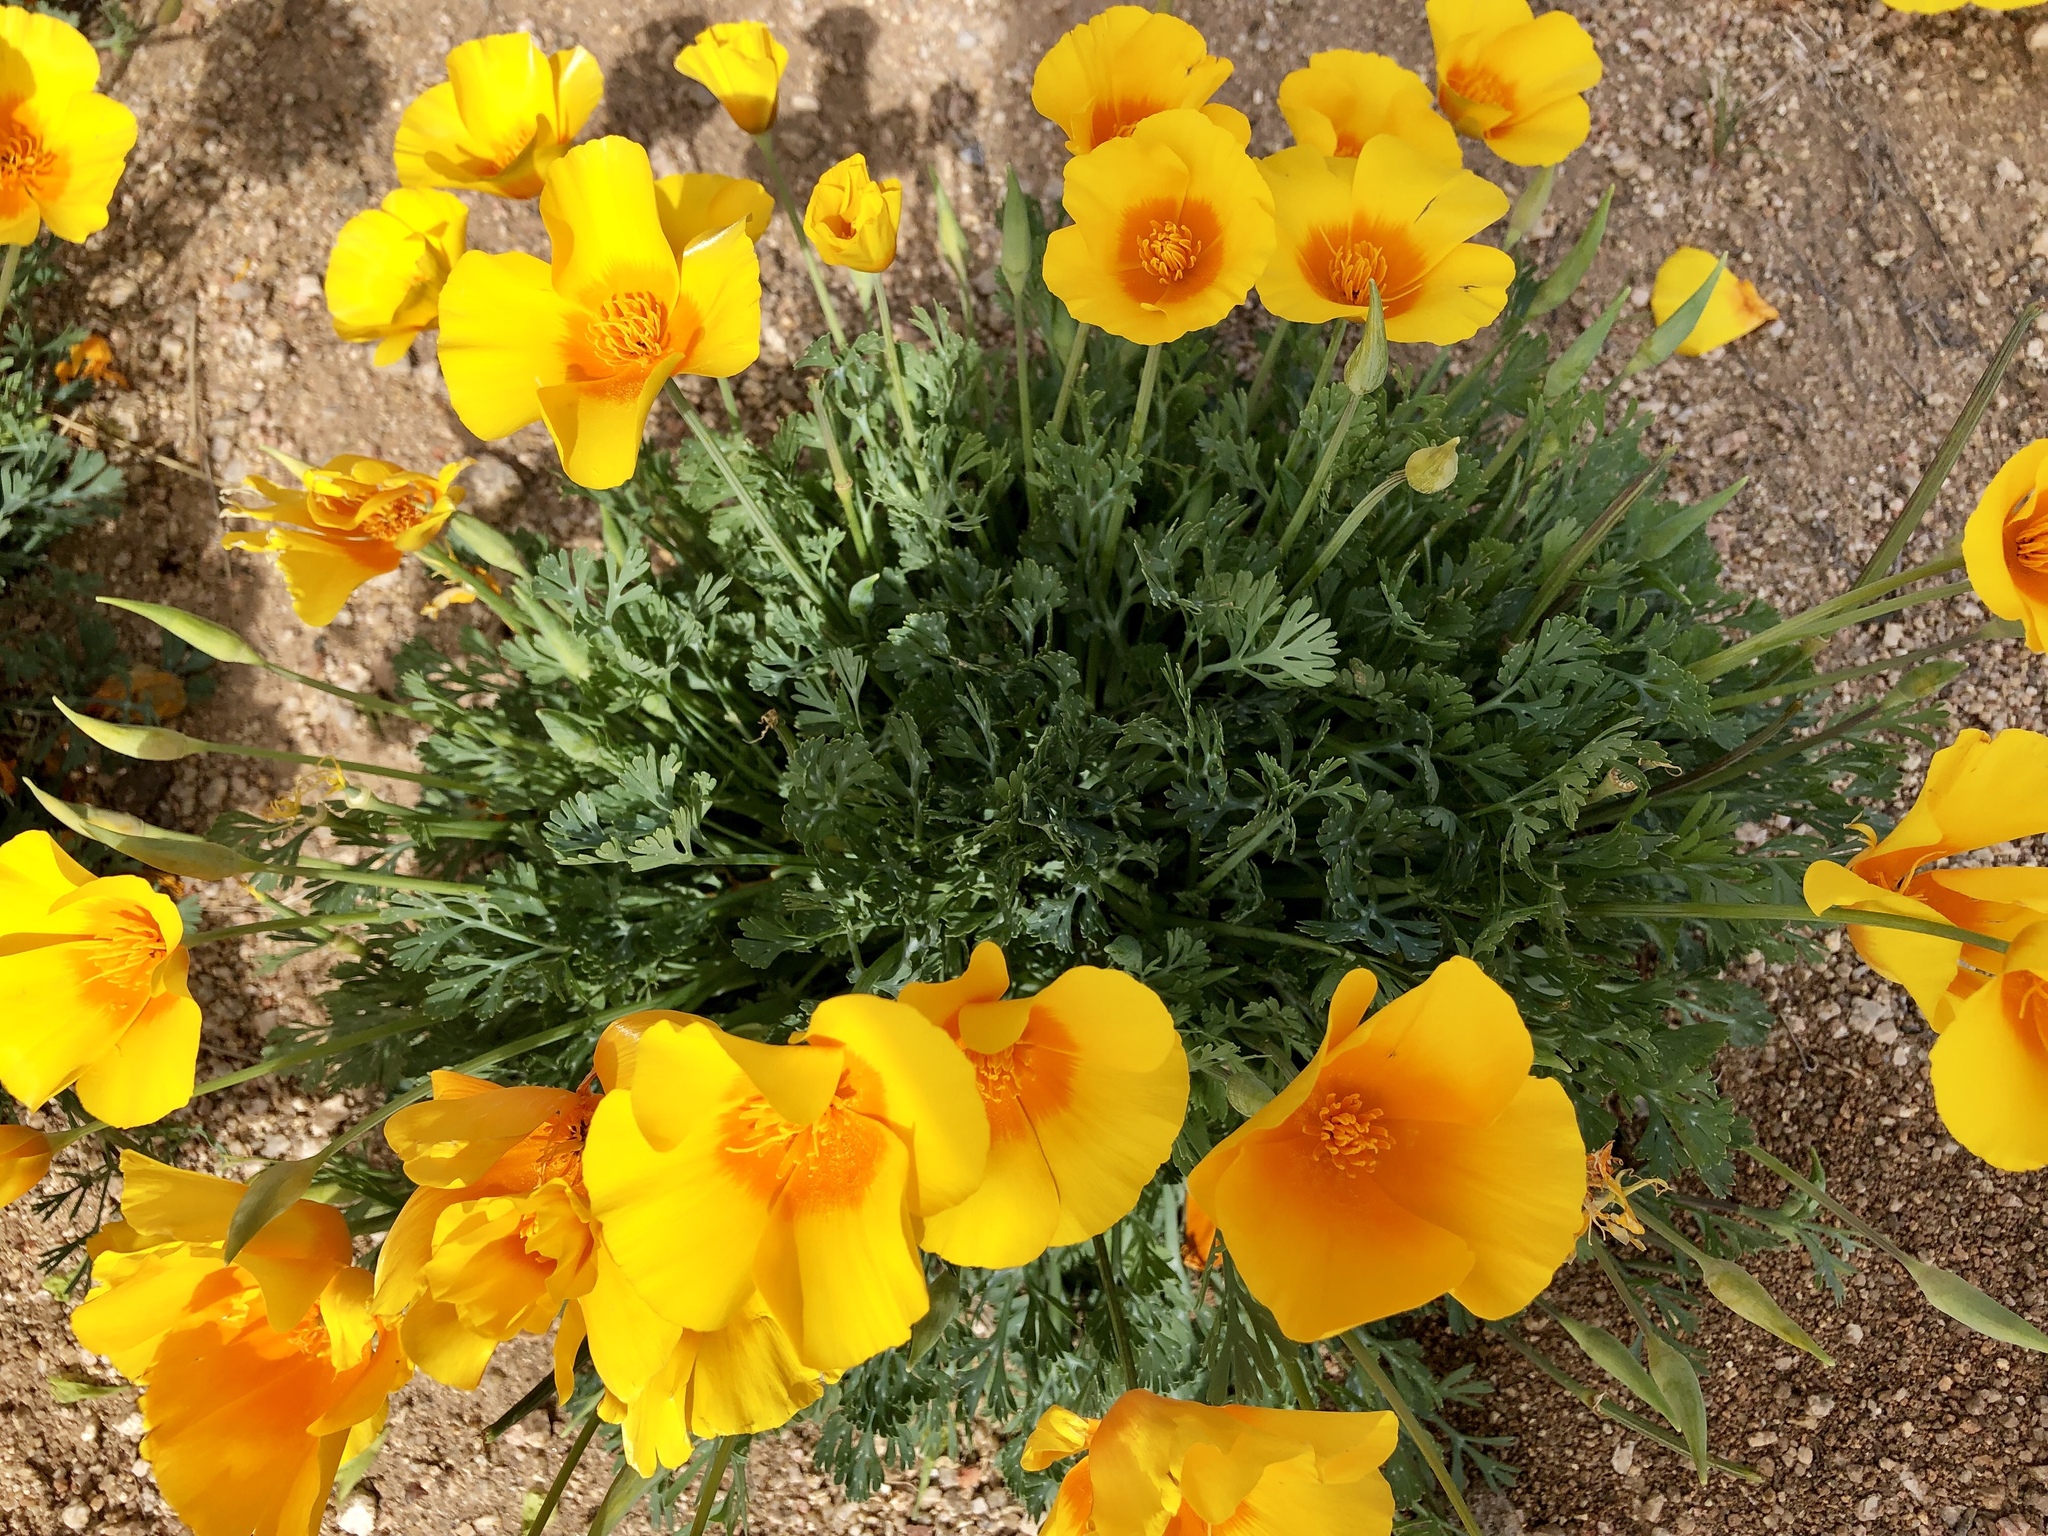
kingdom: Plantae
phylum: Tracheophyta
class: Magnoliopsida
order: Ranunculales
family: Papaveraceae
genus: Eschscholzia
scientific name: Eschscholzia californica
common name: California poppy
